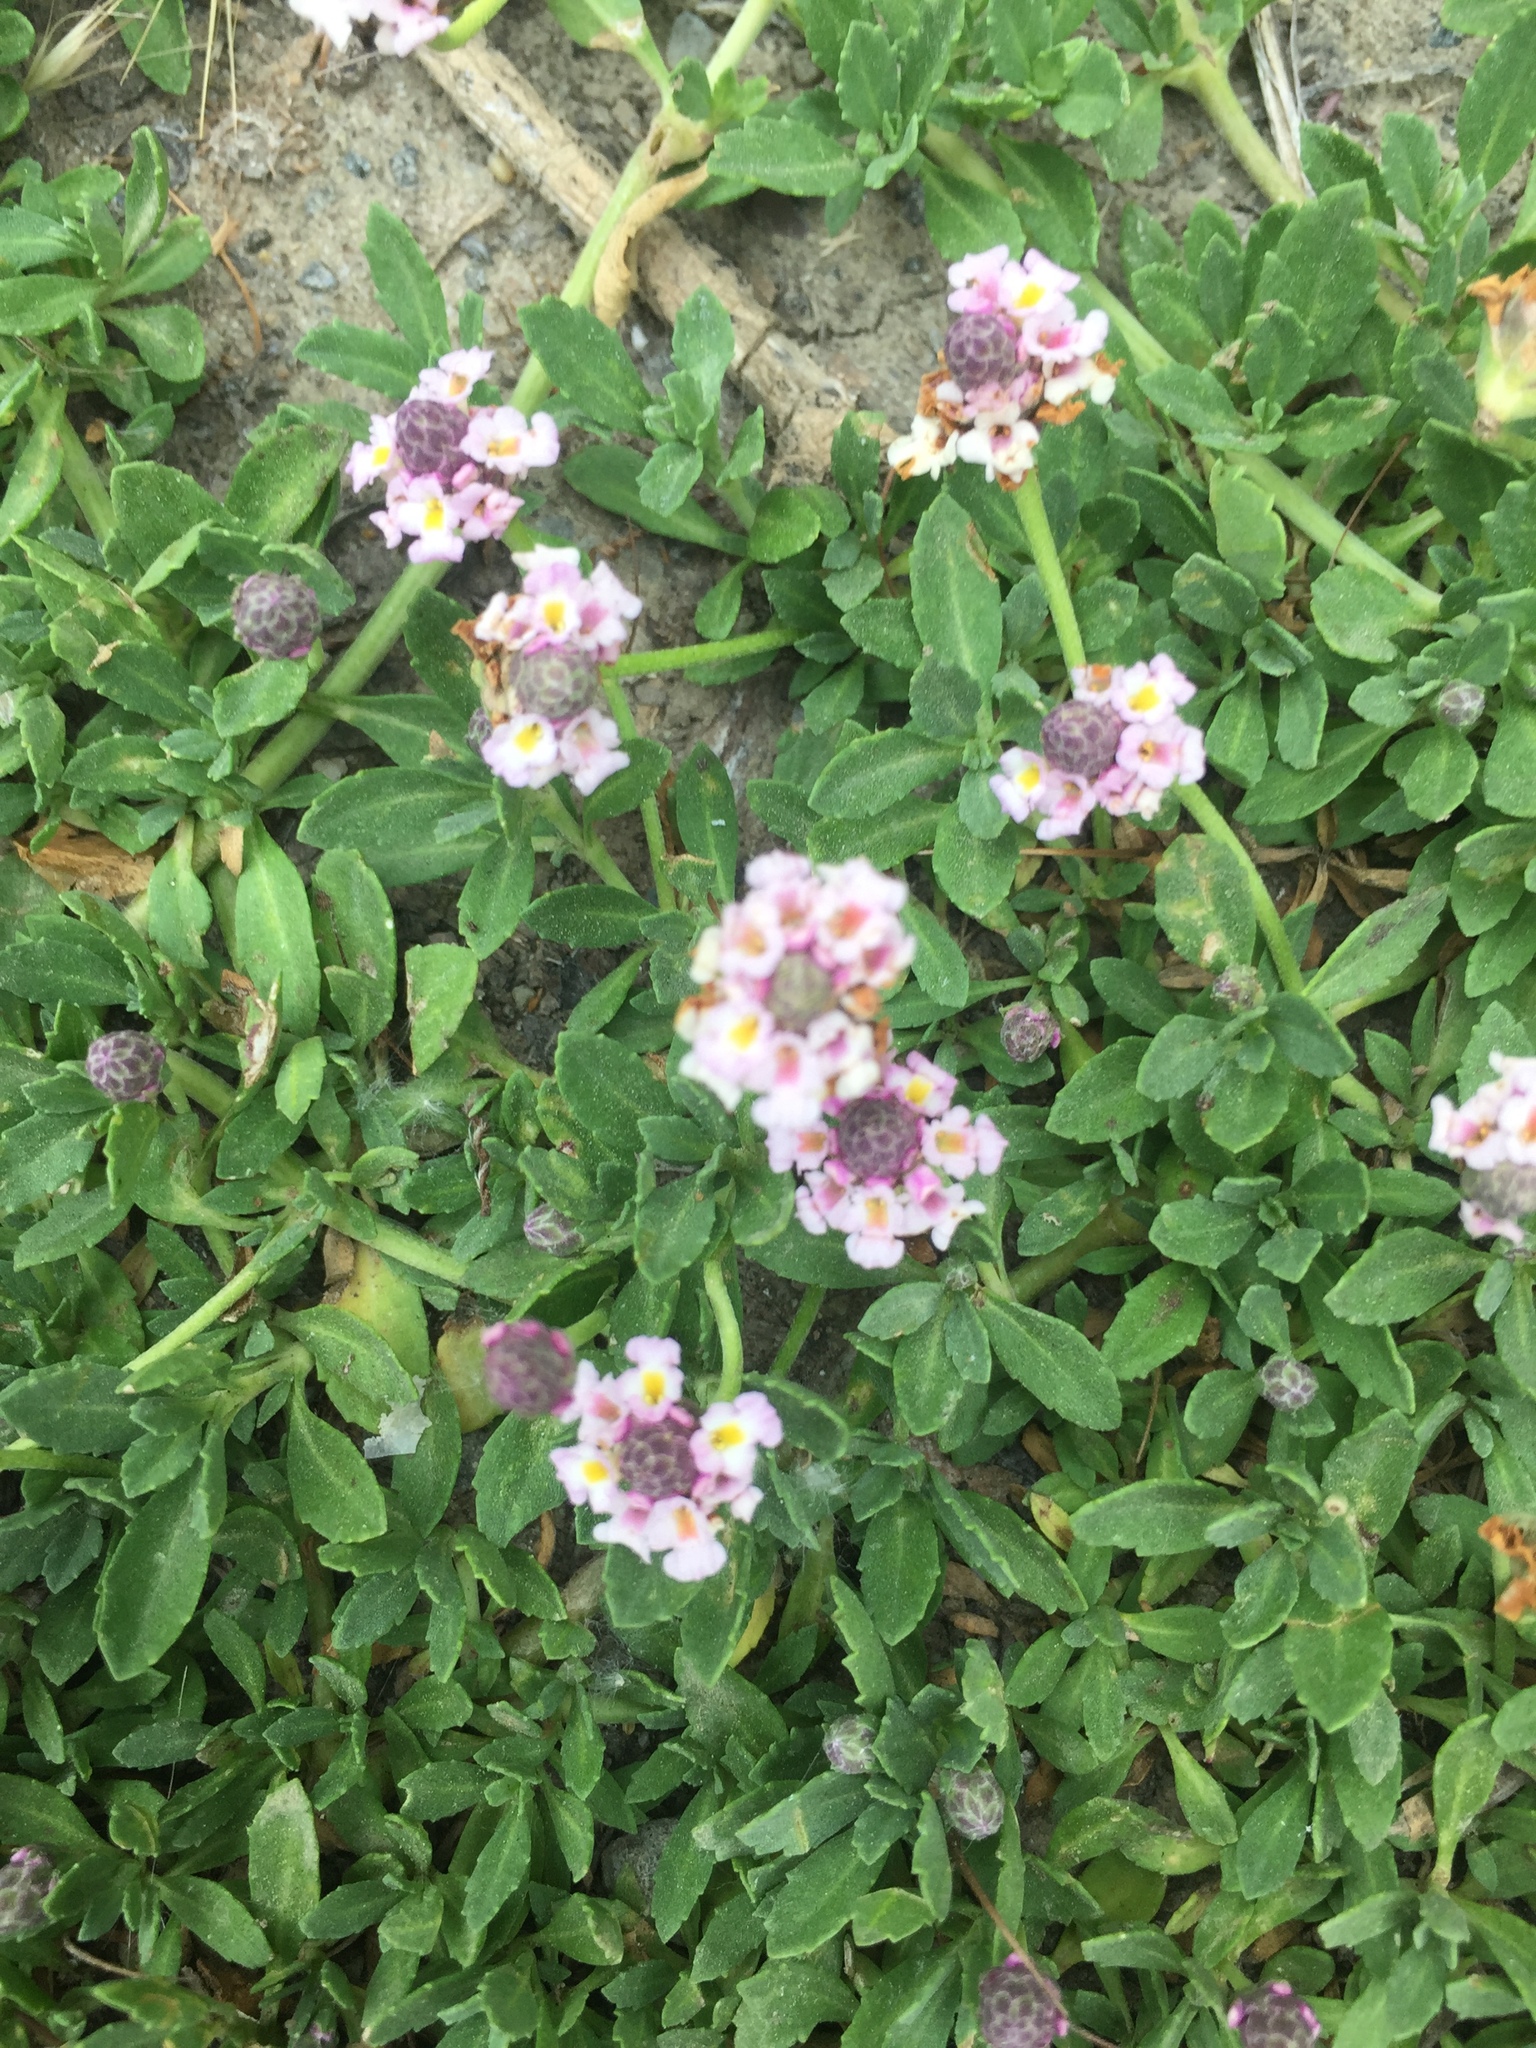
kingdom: Plantae
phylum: Tracheophyta
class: Magnoliopsida
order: Lamiales
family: Verbenaceae
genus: Phyla
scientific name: Phyla nodiflora
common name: Frogfruit
